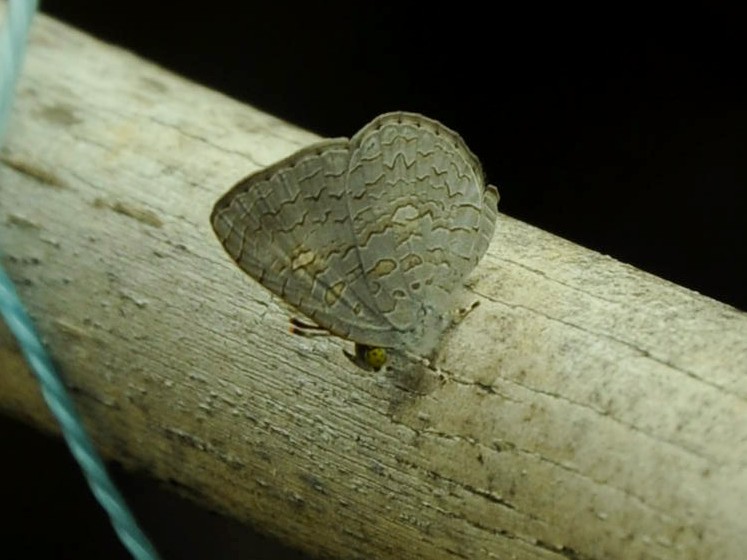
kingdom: Animalia
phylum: Arthropoda
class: Insecta
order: Lepidoptera
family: Lycaenidae
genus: Spalgis
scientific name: Spalgis epius
